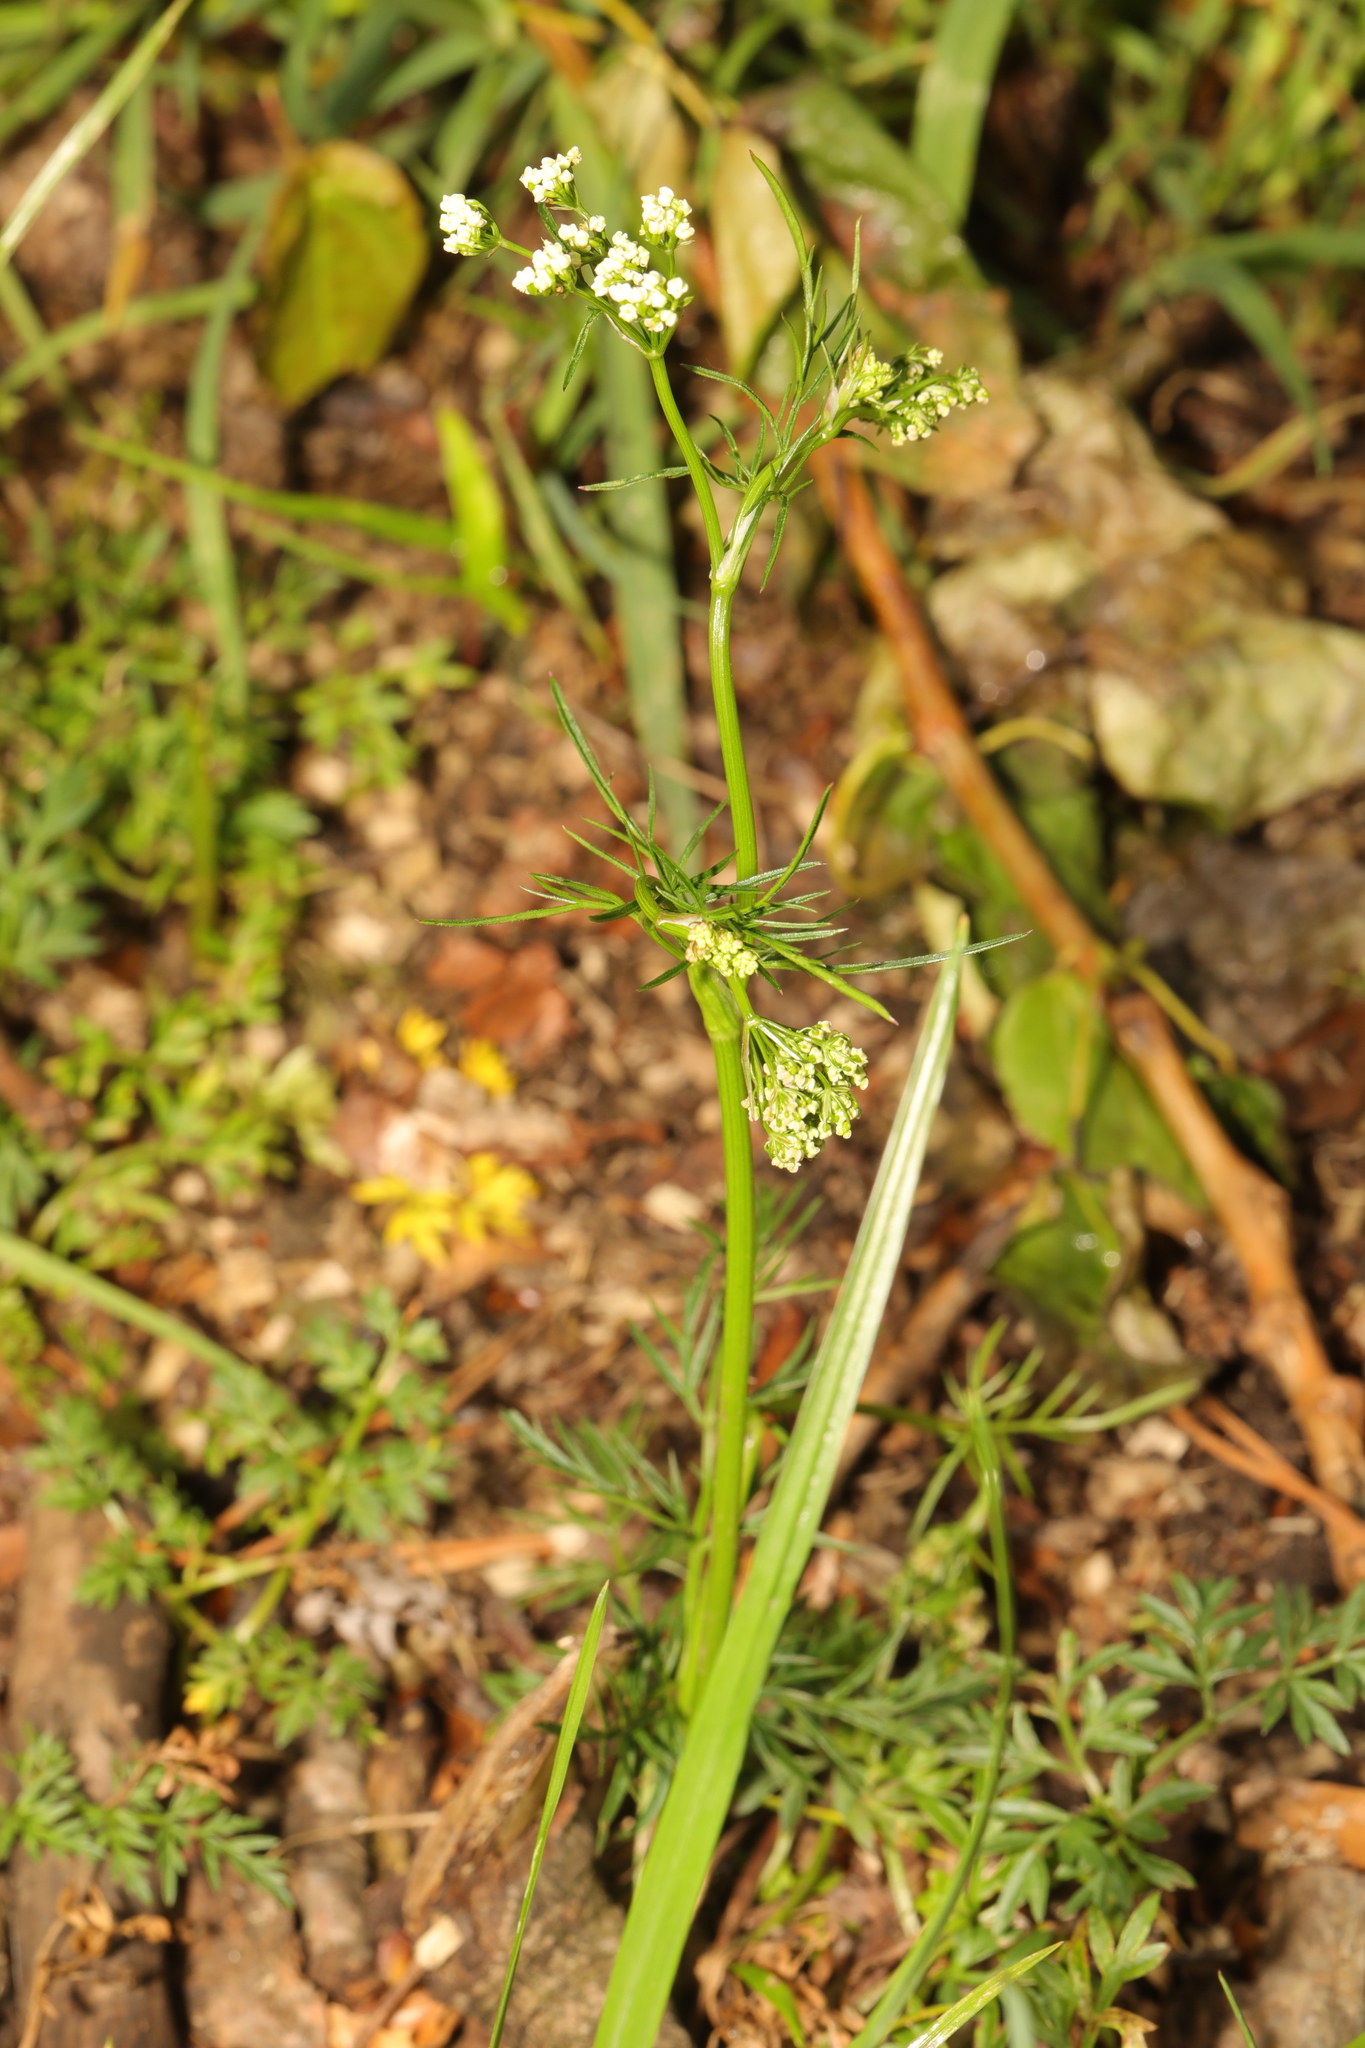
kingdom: Plantae
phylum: Tracheophyta
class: Magnoliopsida
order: Apiales
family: Apiaceae
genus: Conopodium
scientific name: Conopodium majus
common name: Pignut
